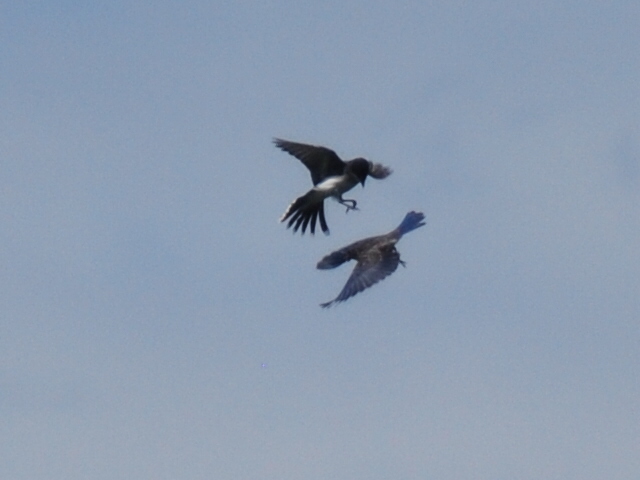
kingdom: Animalia
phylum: Chordata
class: Aves
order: Passeriformes
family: Turdidae
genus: Sialia
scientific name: Sialia sialis
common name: Eastern bluebird
